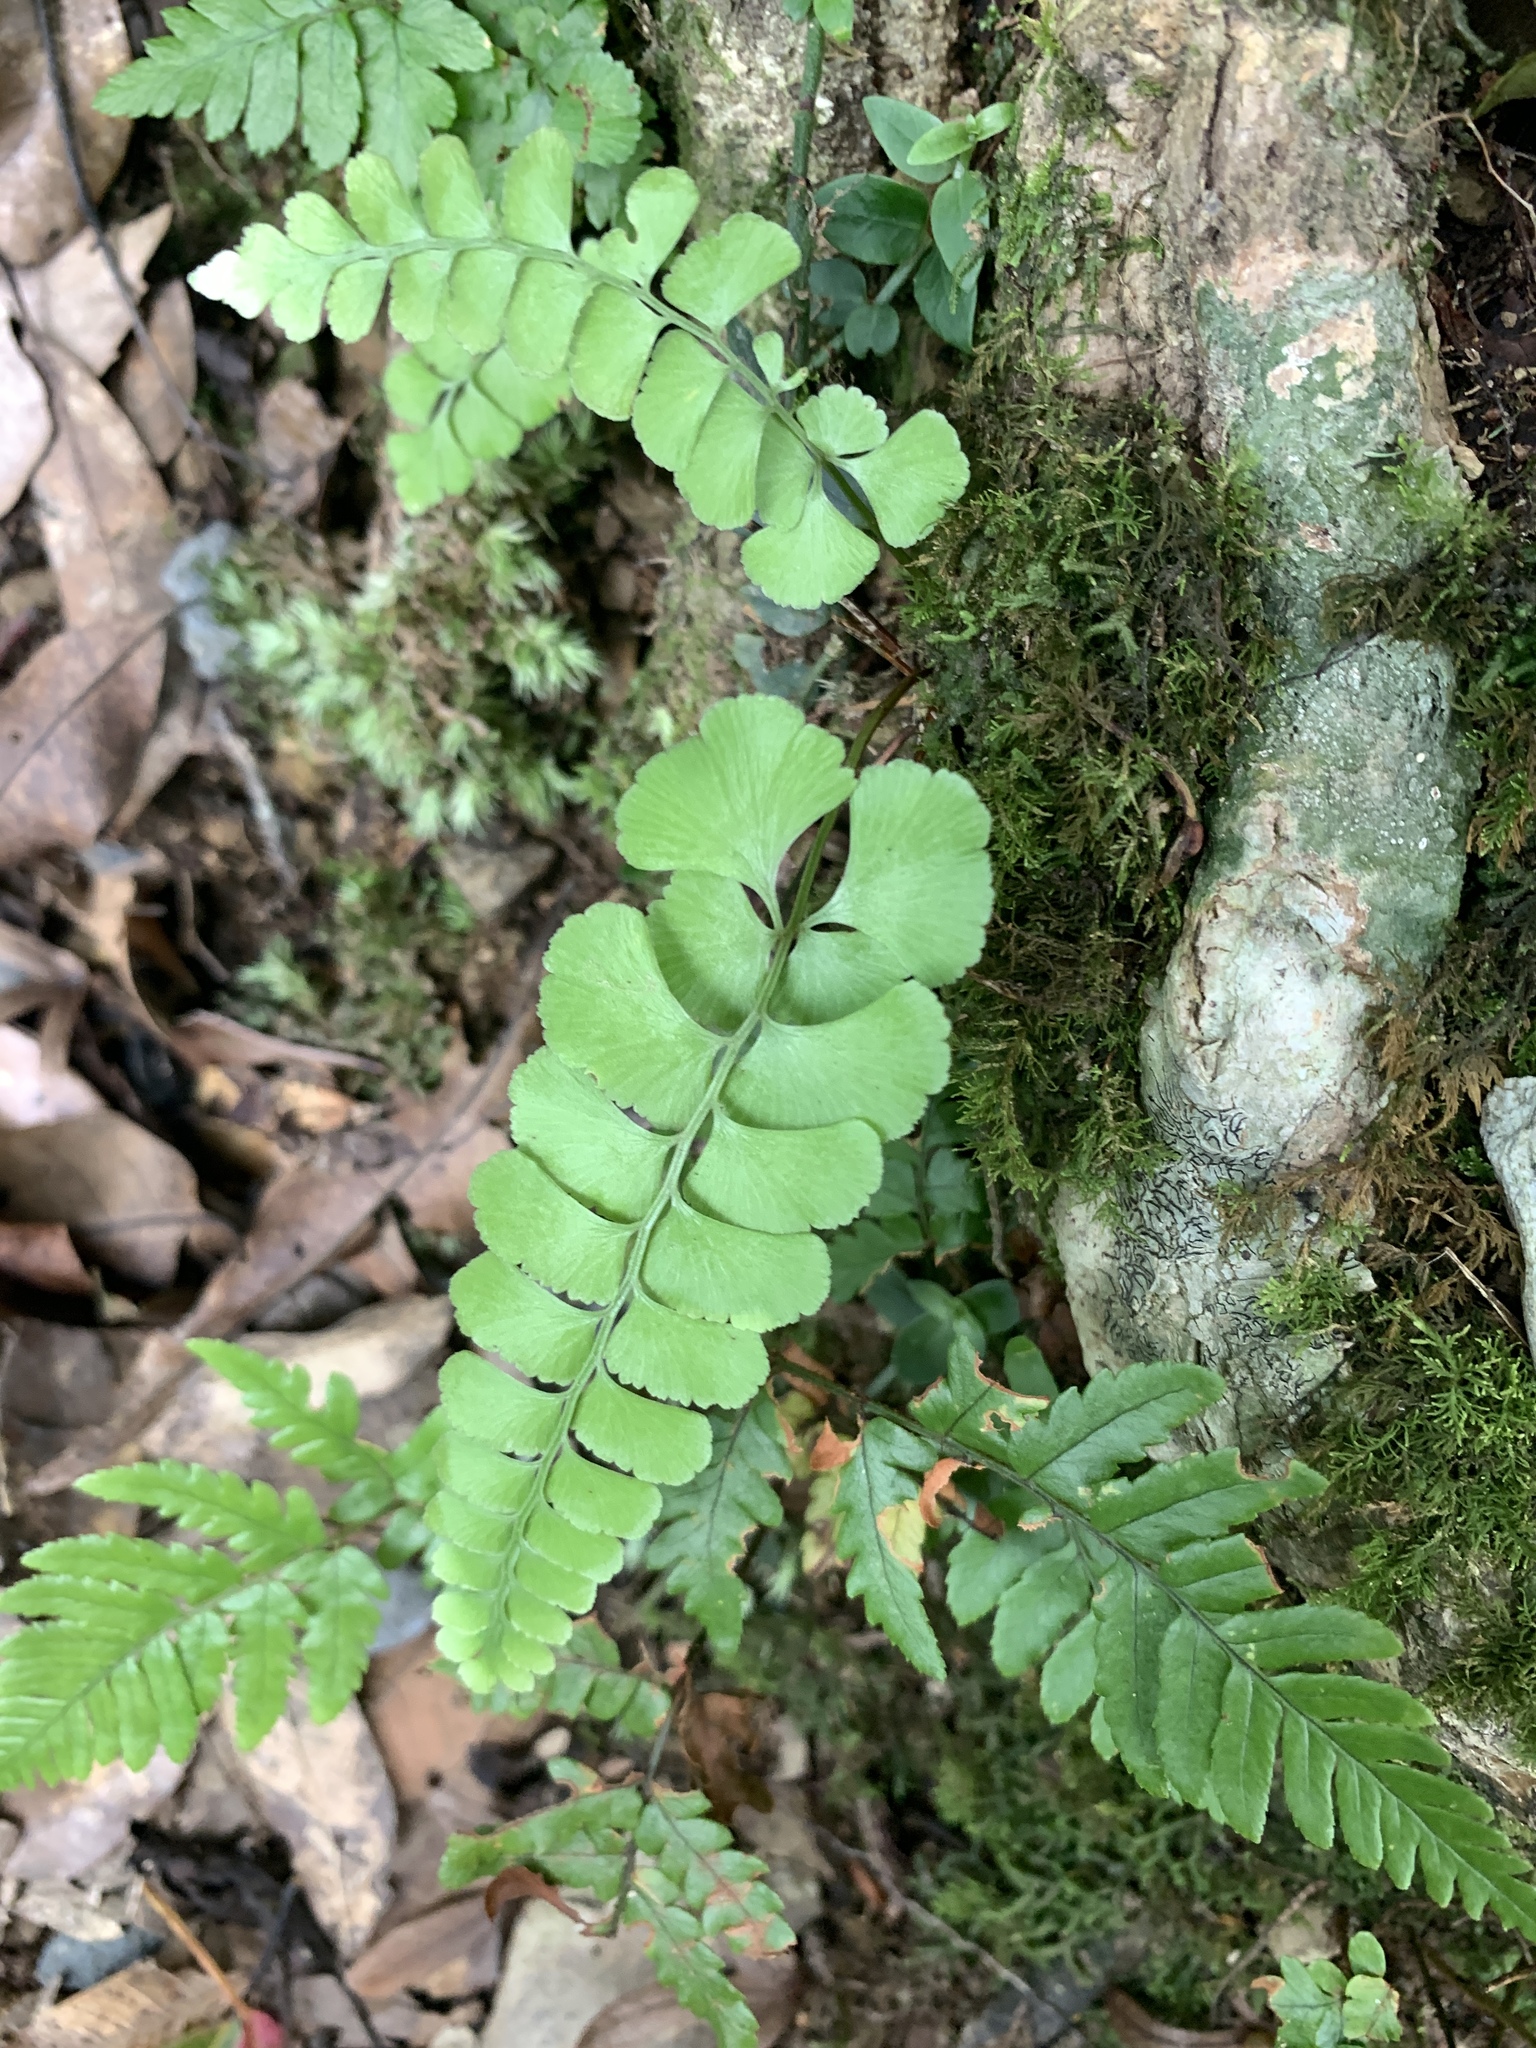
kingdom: Plantae
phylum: Tracheophyta
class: Polypodiopsida
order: Polypodiales
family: Lindsaeaceae
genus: Lindsaea
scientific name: Lindsaea orbiculata
